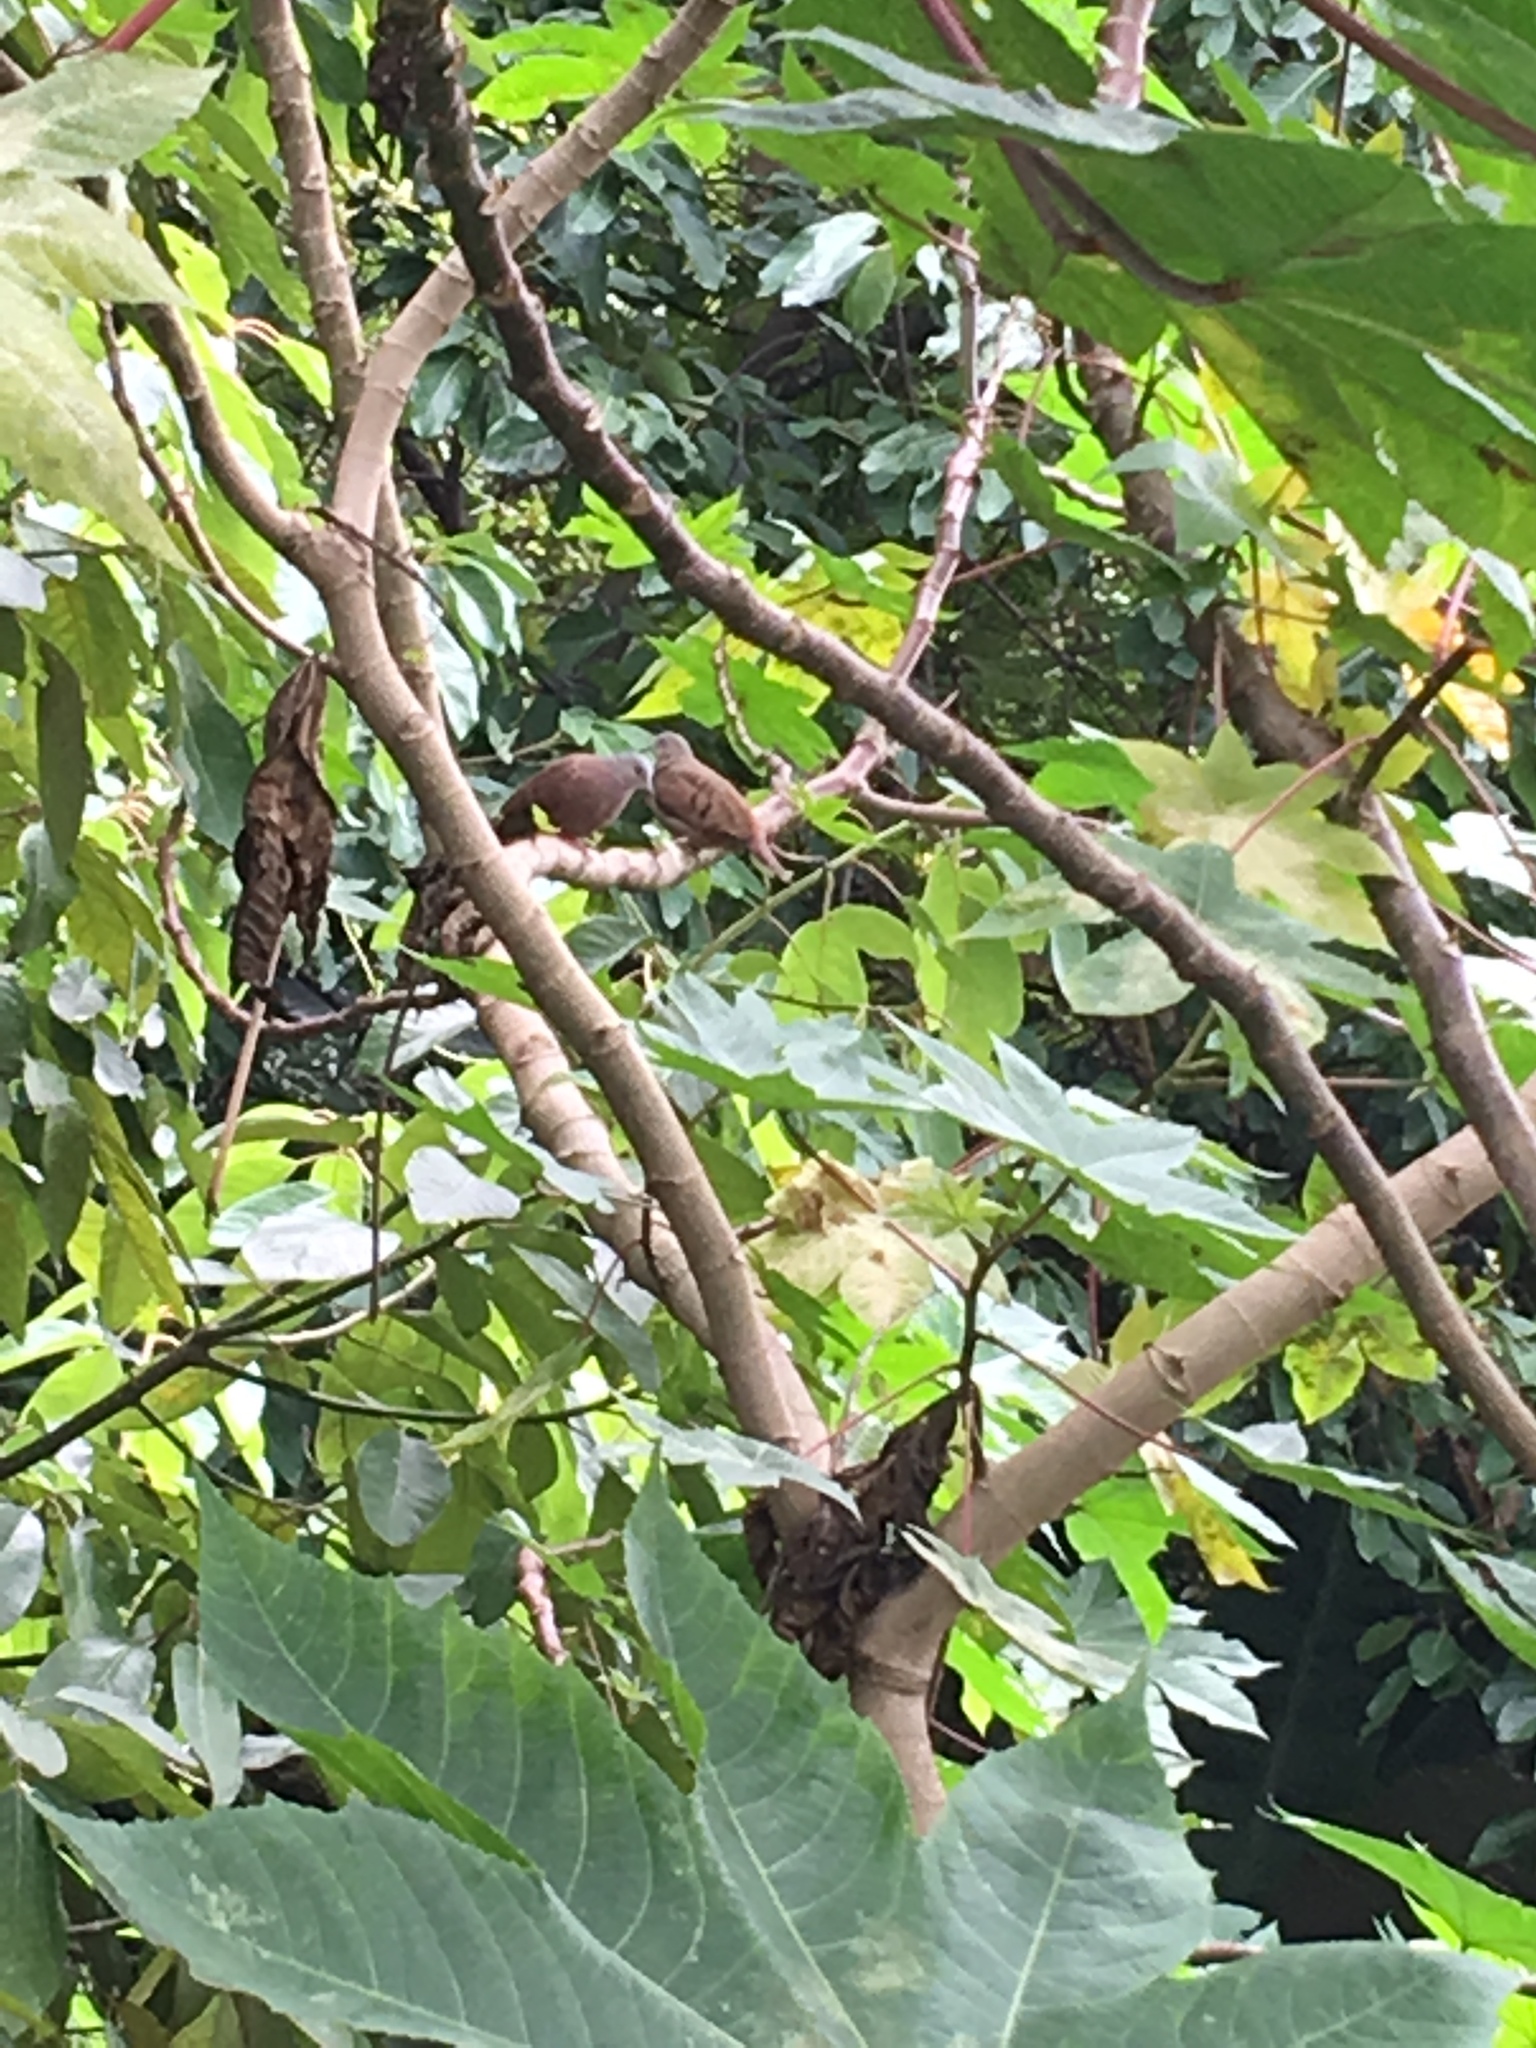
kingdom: Animalia
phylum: Chordata
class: Aves
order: Columbiformes
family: Columbidae
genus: Columbina
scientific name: Columbina talpacoti
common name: Ruddy ground dove
